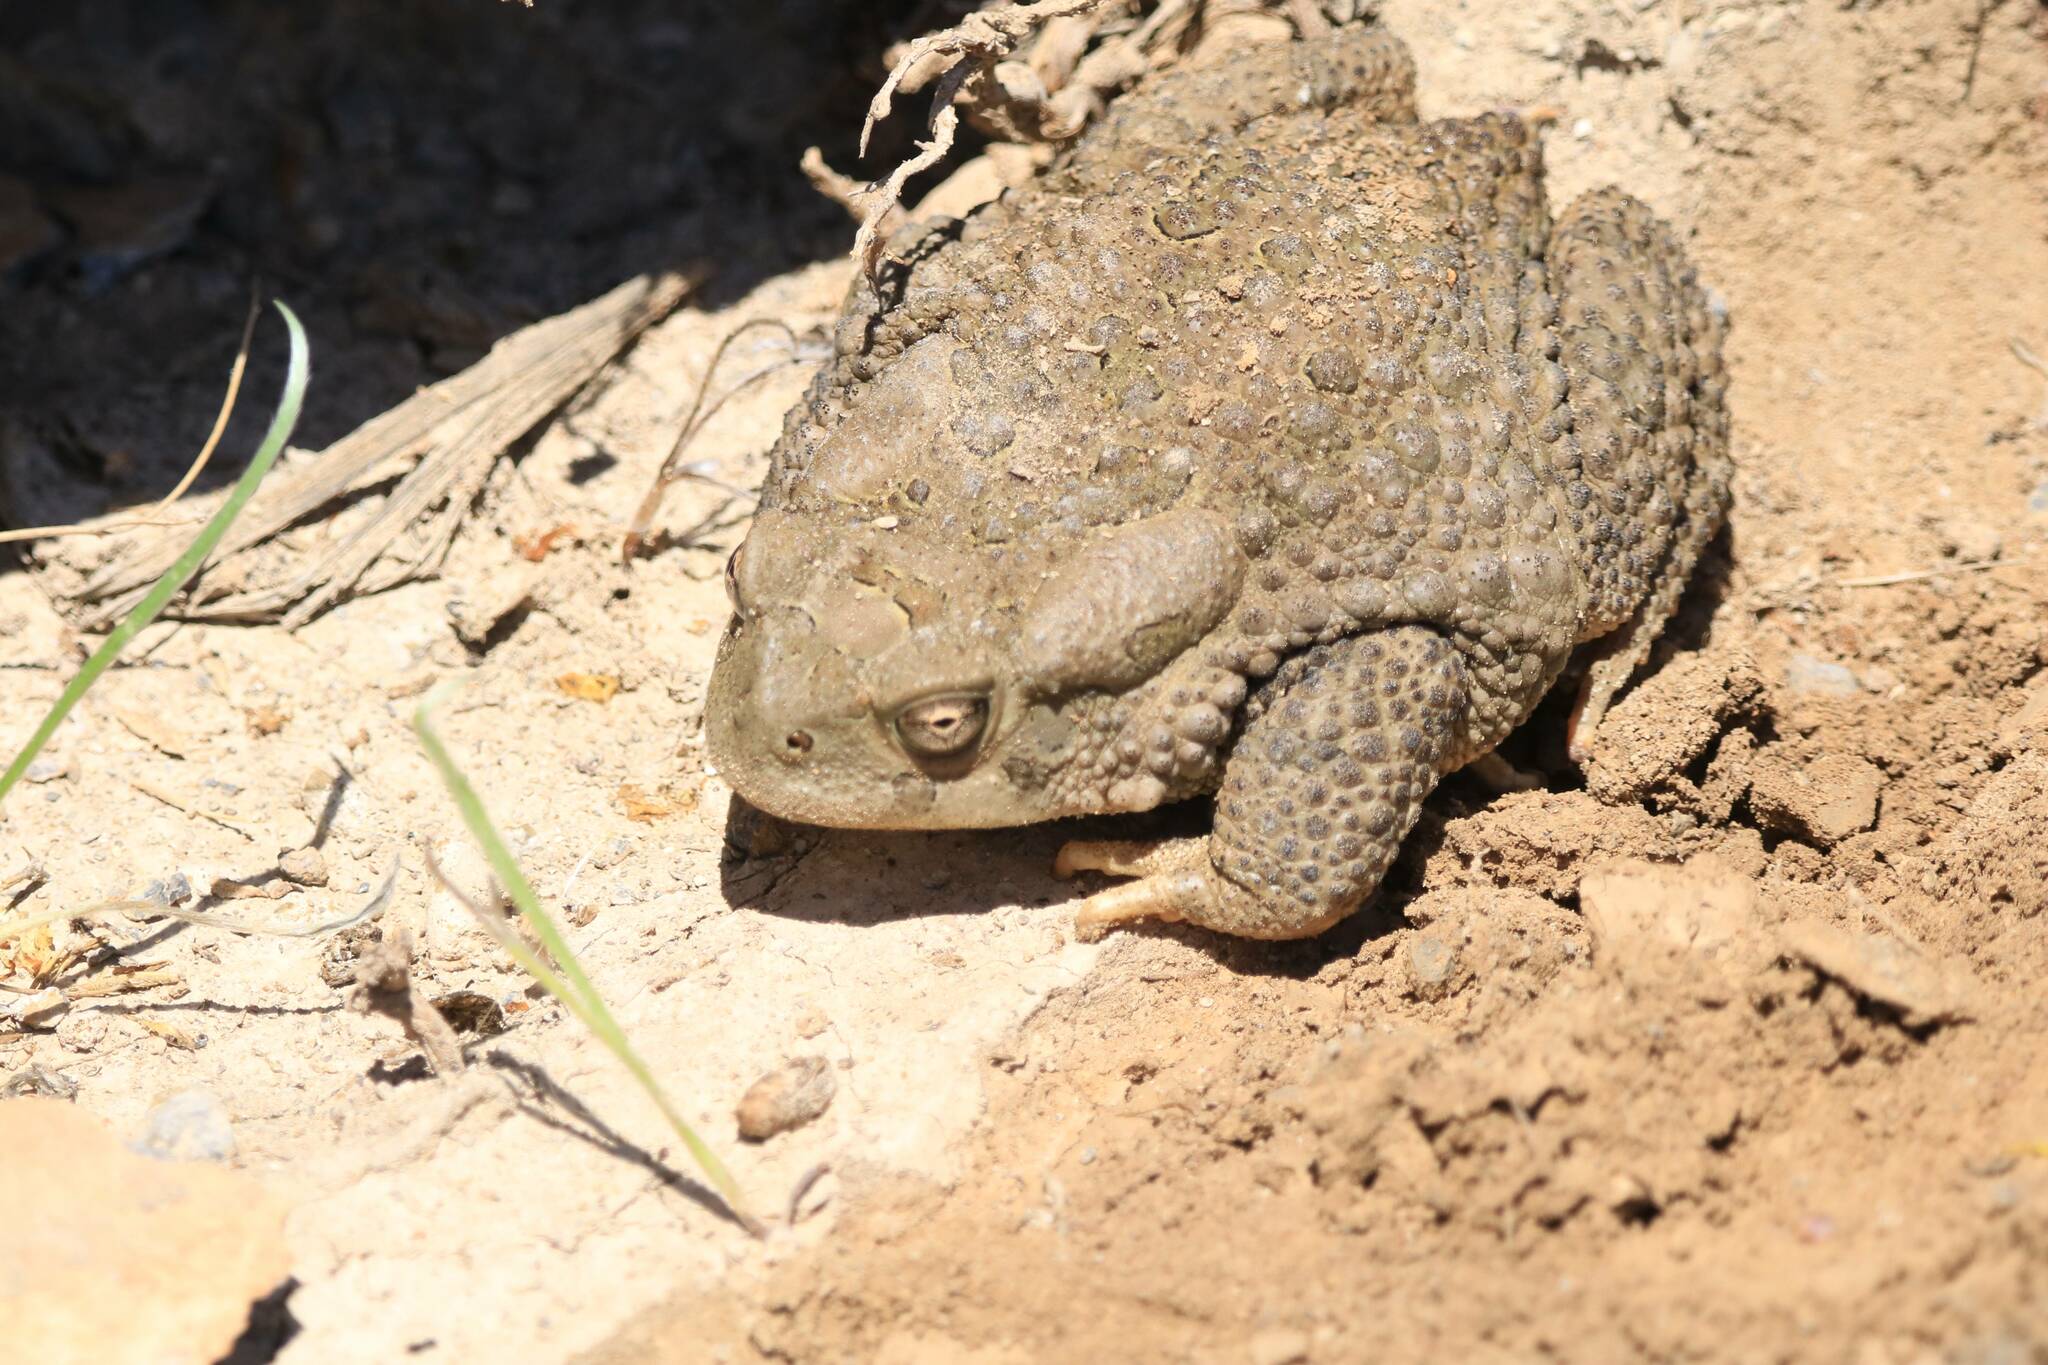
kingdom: Animalia
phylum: Chordata
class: Amphibia
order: Anura
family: Bufonidae
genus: Sclerophrys
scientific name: Sclerophrys mauritanica
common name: Berber toad
